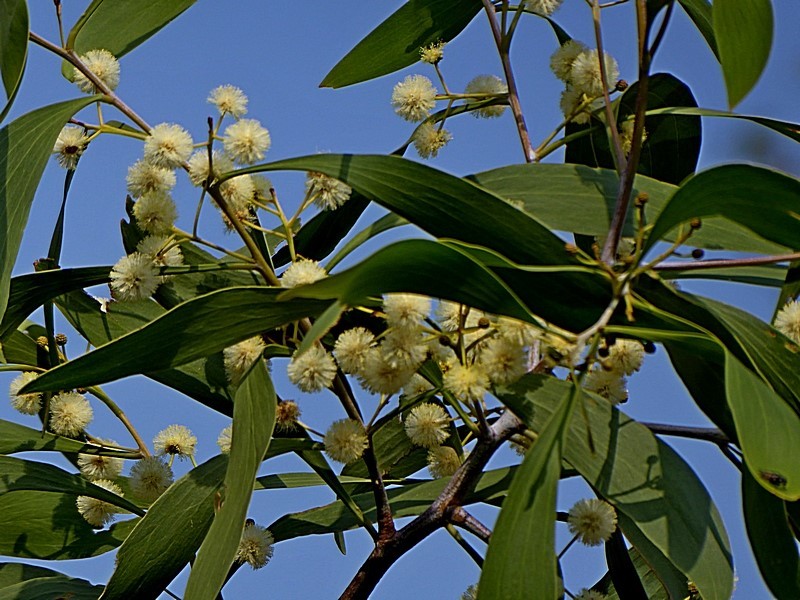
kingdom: Plantae
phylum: Tracheophyta
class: Magnoliopsida
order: Fabales
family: Fabaceae
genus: Acacia
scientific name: Acacia implexa
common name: Black wattle
